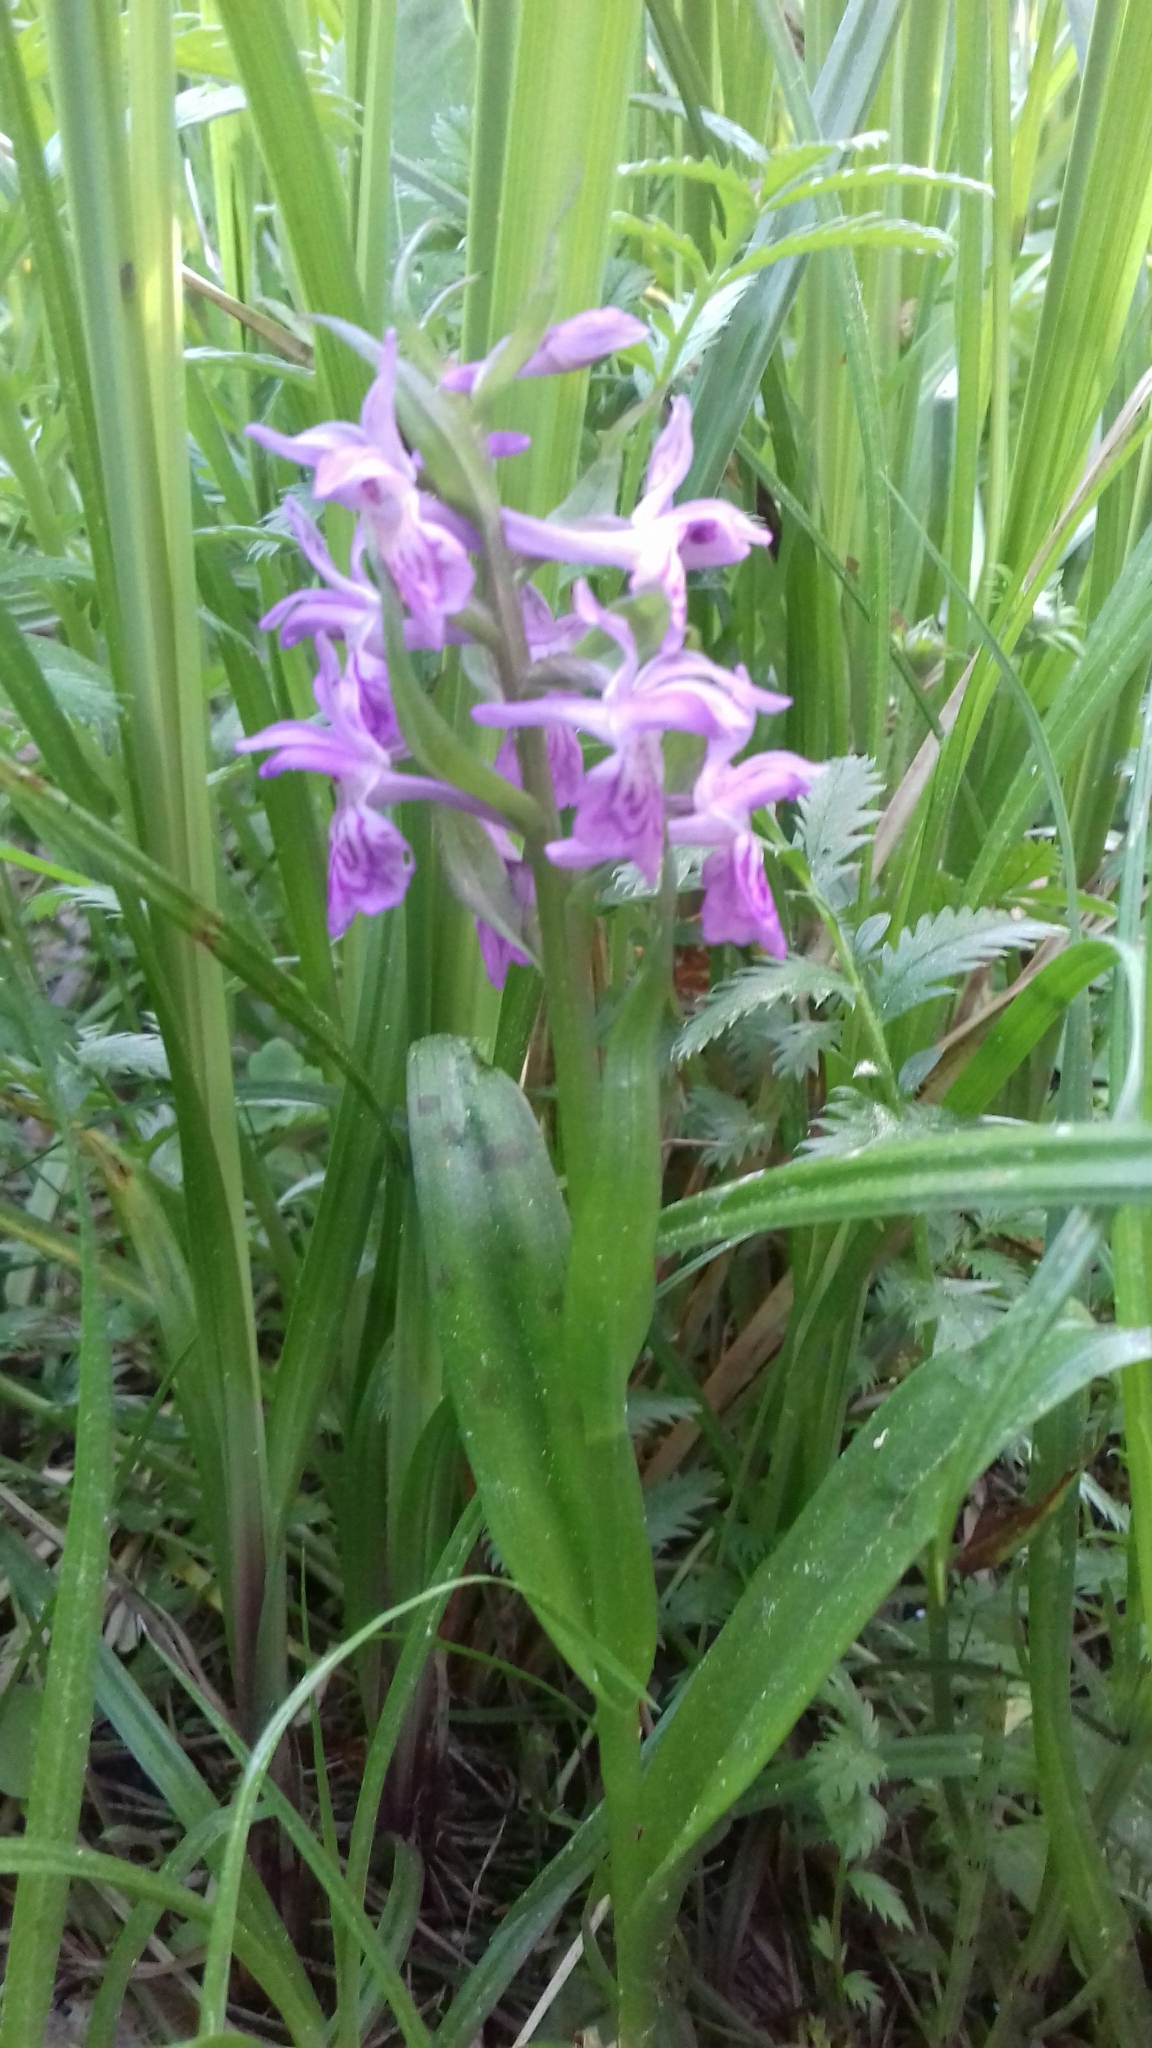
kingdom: Plantae
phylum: Tracheophyta
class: Liliopsida
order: Asparagales
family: Orchidaceae
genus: Dactylorhiza
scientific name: Dactylorhiza majalis
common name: Marsh orchid
